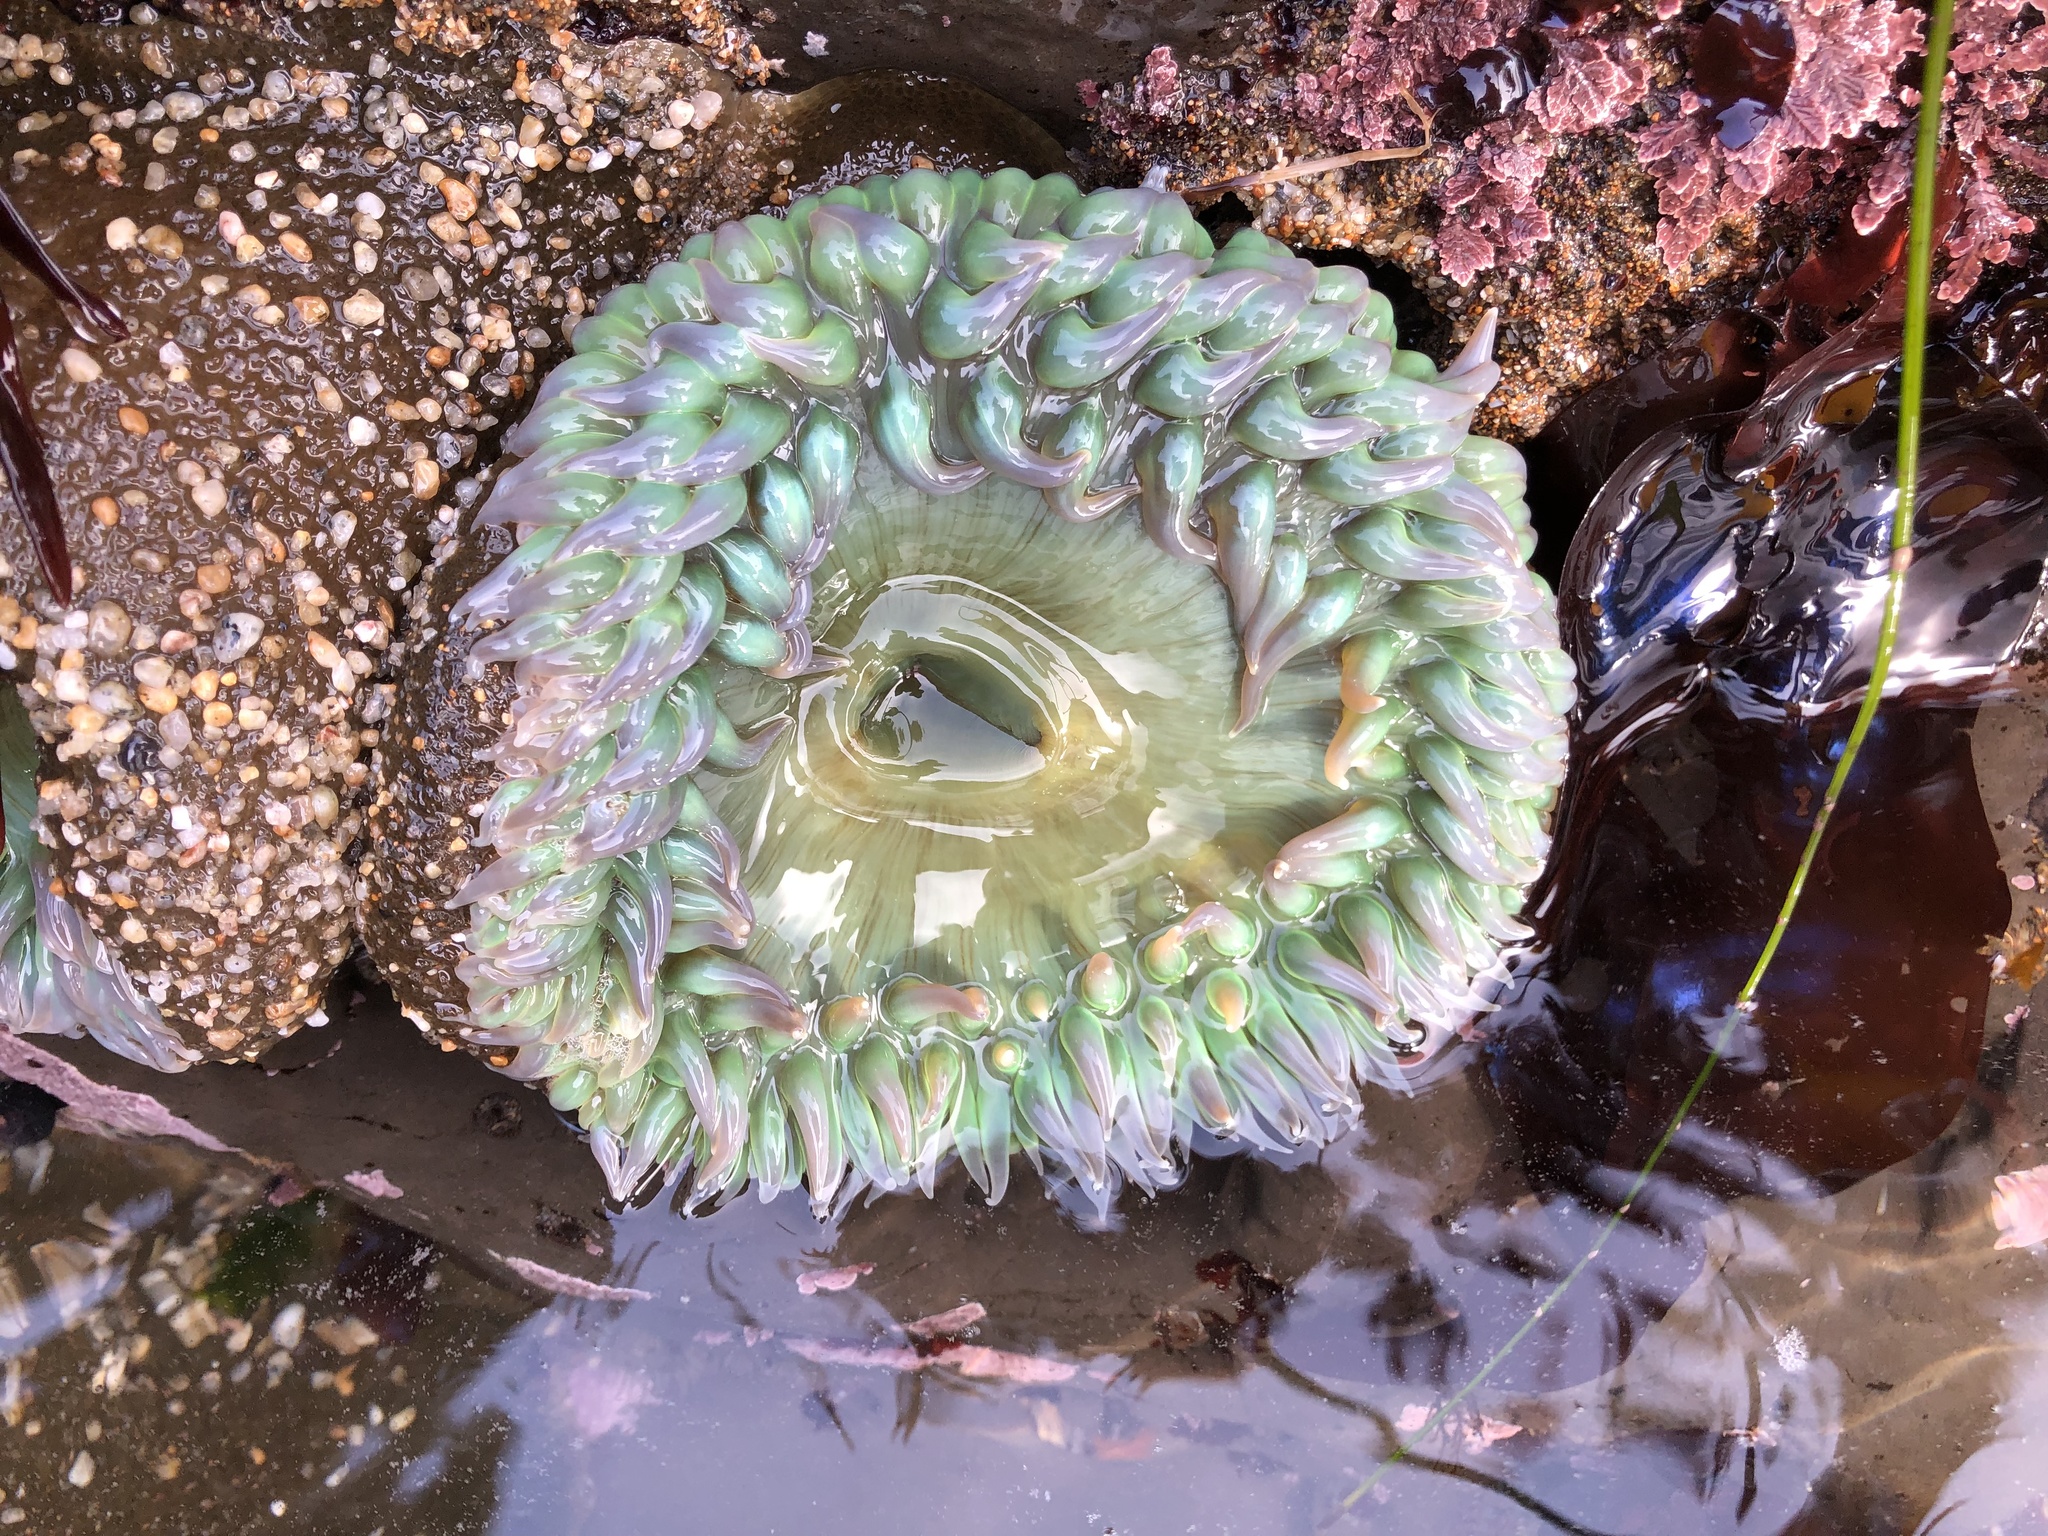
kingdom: Animalia
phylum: Cnidaria
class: Anthozoa
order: Actiniaria
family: Actiniidae
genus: Anthopleura
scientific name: Anthopleura xanthogrammica
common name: Giant green anemone
